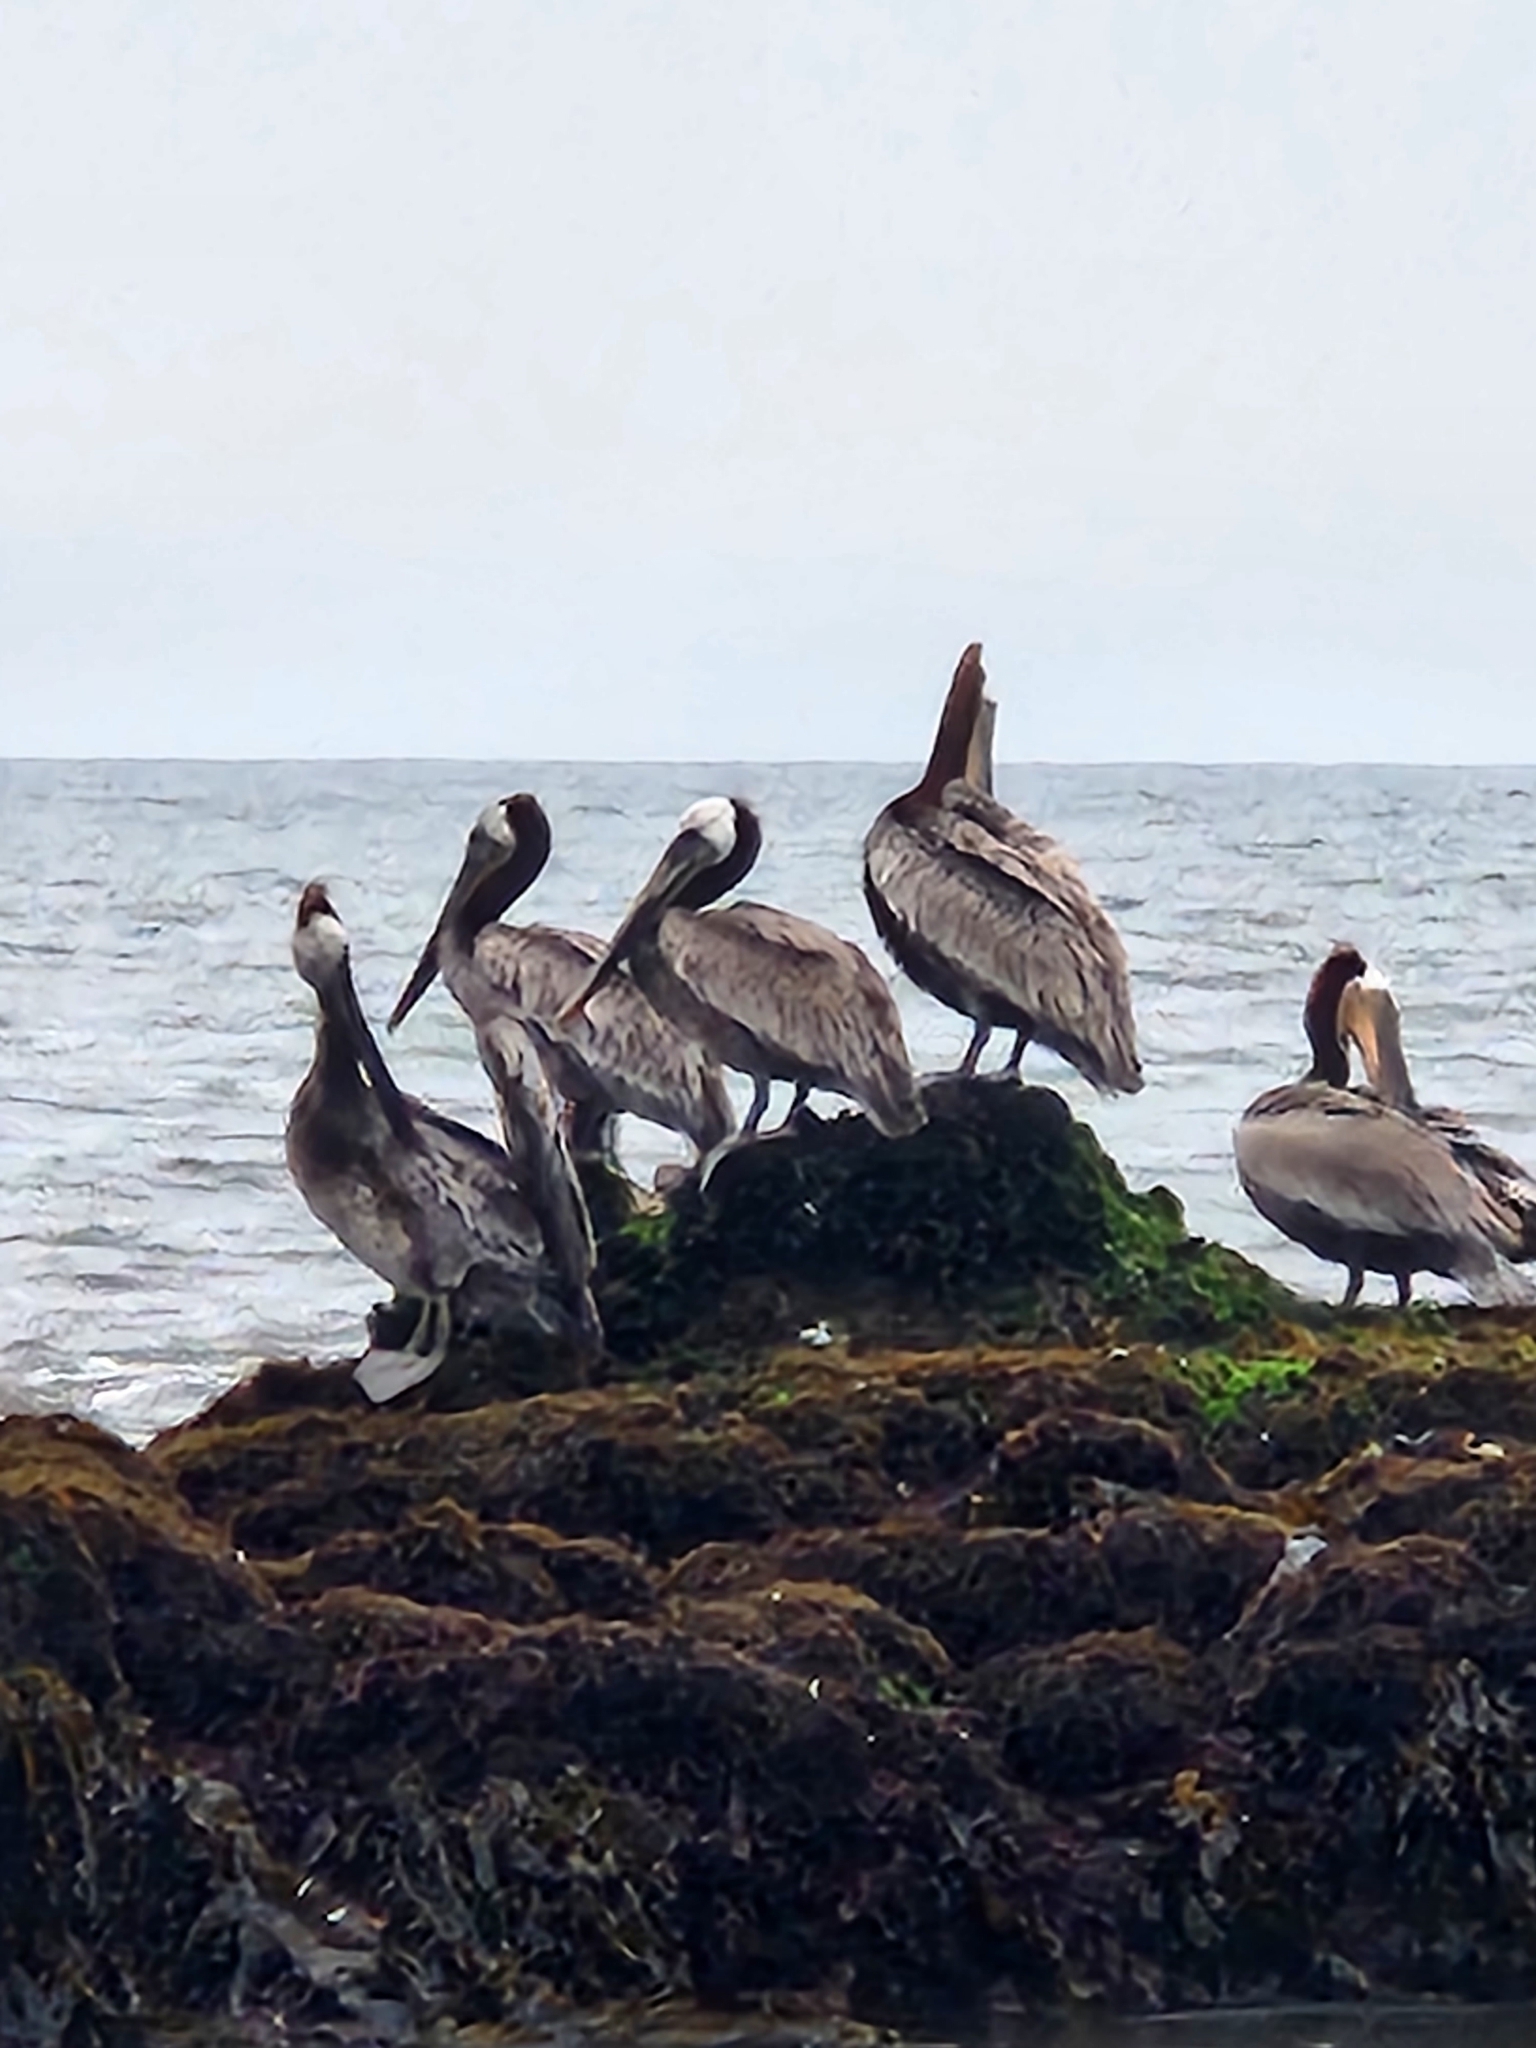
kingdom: Animalia
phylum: Chordata
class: Aves
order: Pelecaniformes
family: Pelecanidae
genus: Pelecanus
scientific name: Pelecanus occidentalis
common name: Brown pelican
